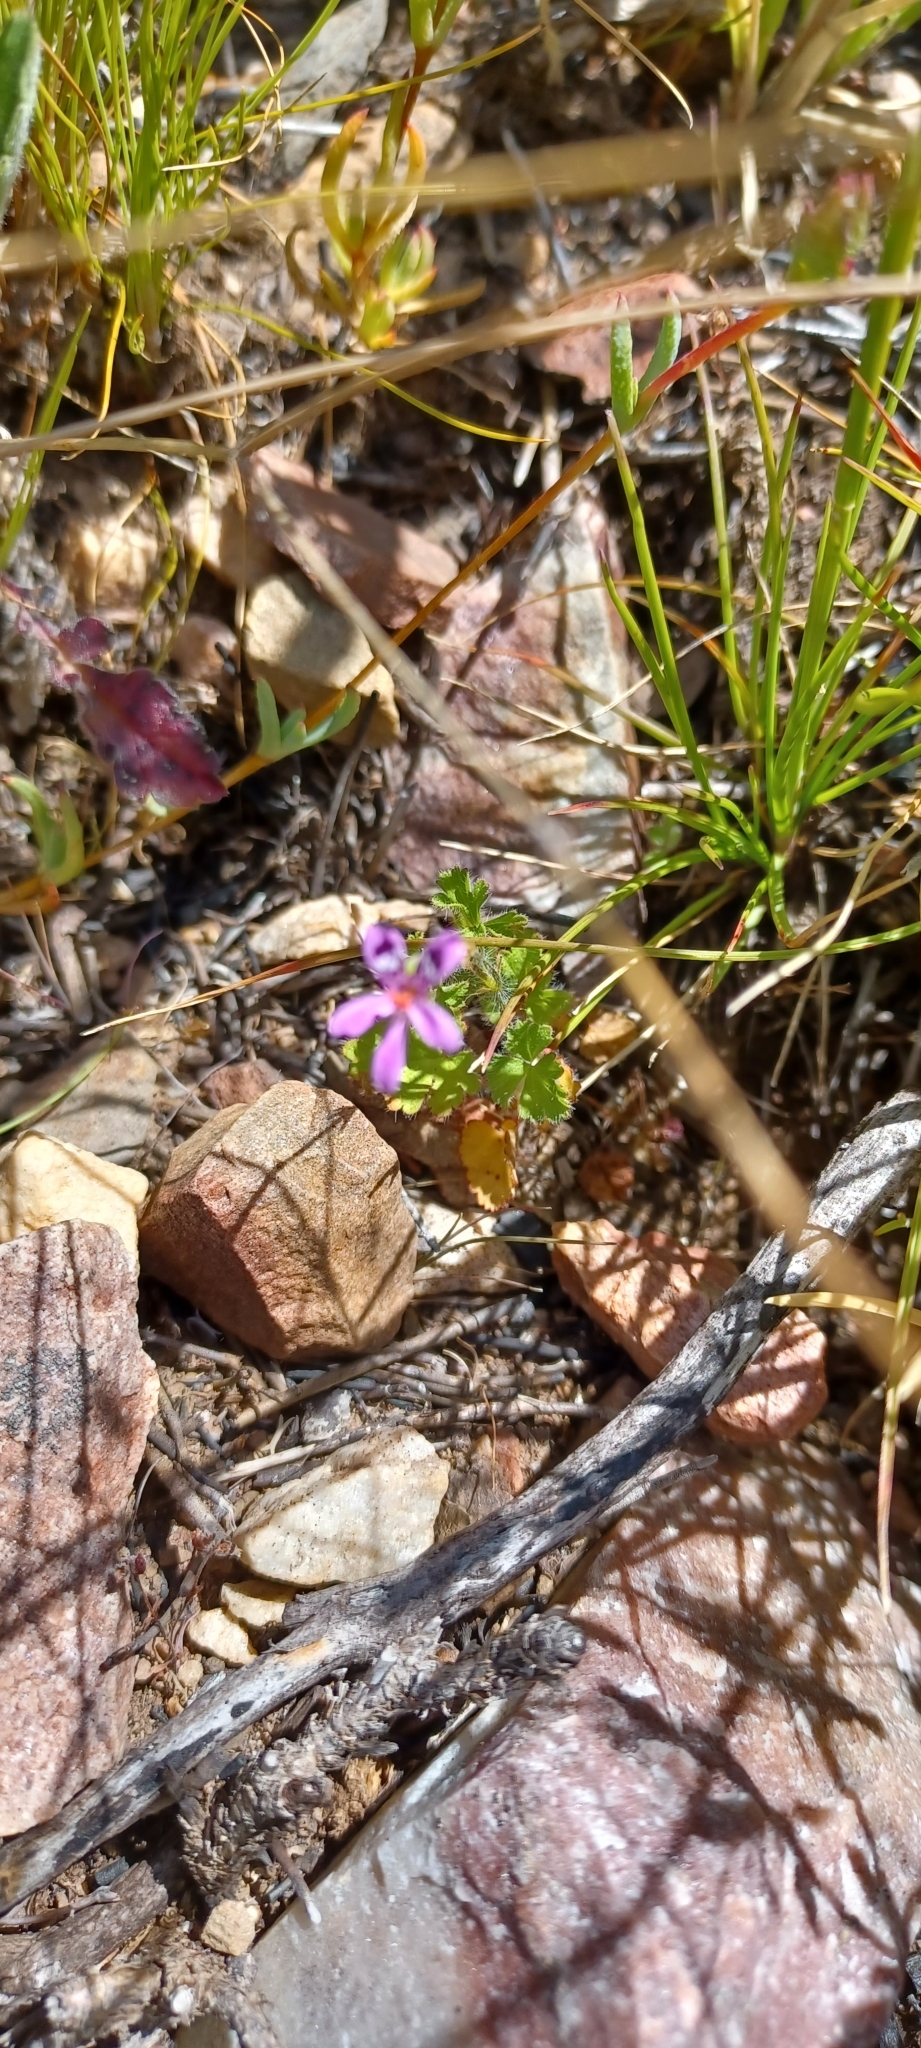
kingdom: Plantae
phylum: Tracheophyta
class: Magnoliopsida
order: Geraniales
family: Geraniaceae
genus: Pelargonium
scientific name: Pelargonium columbinum
